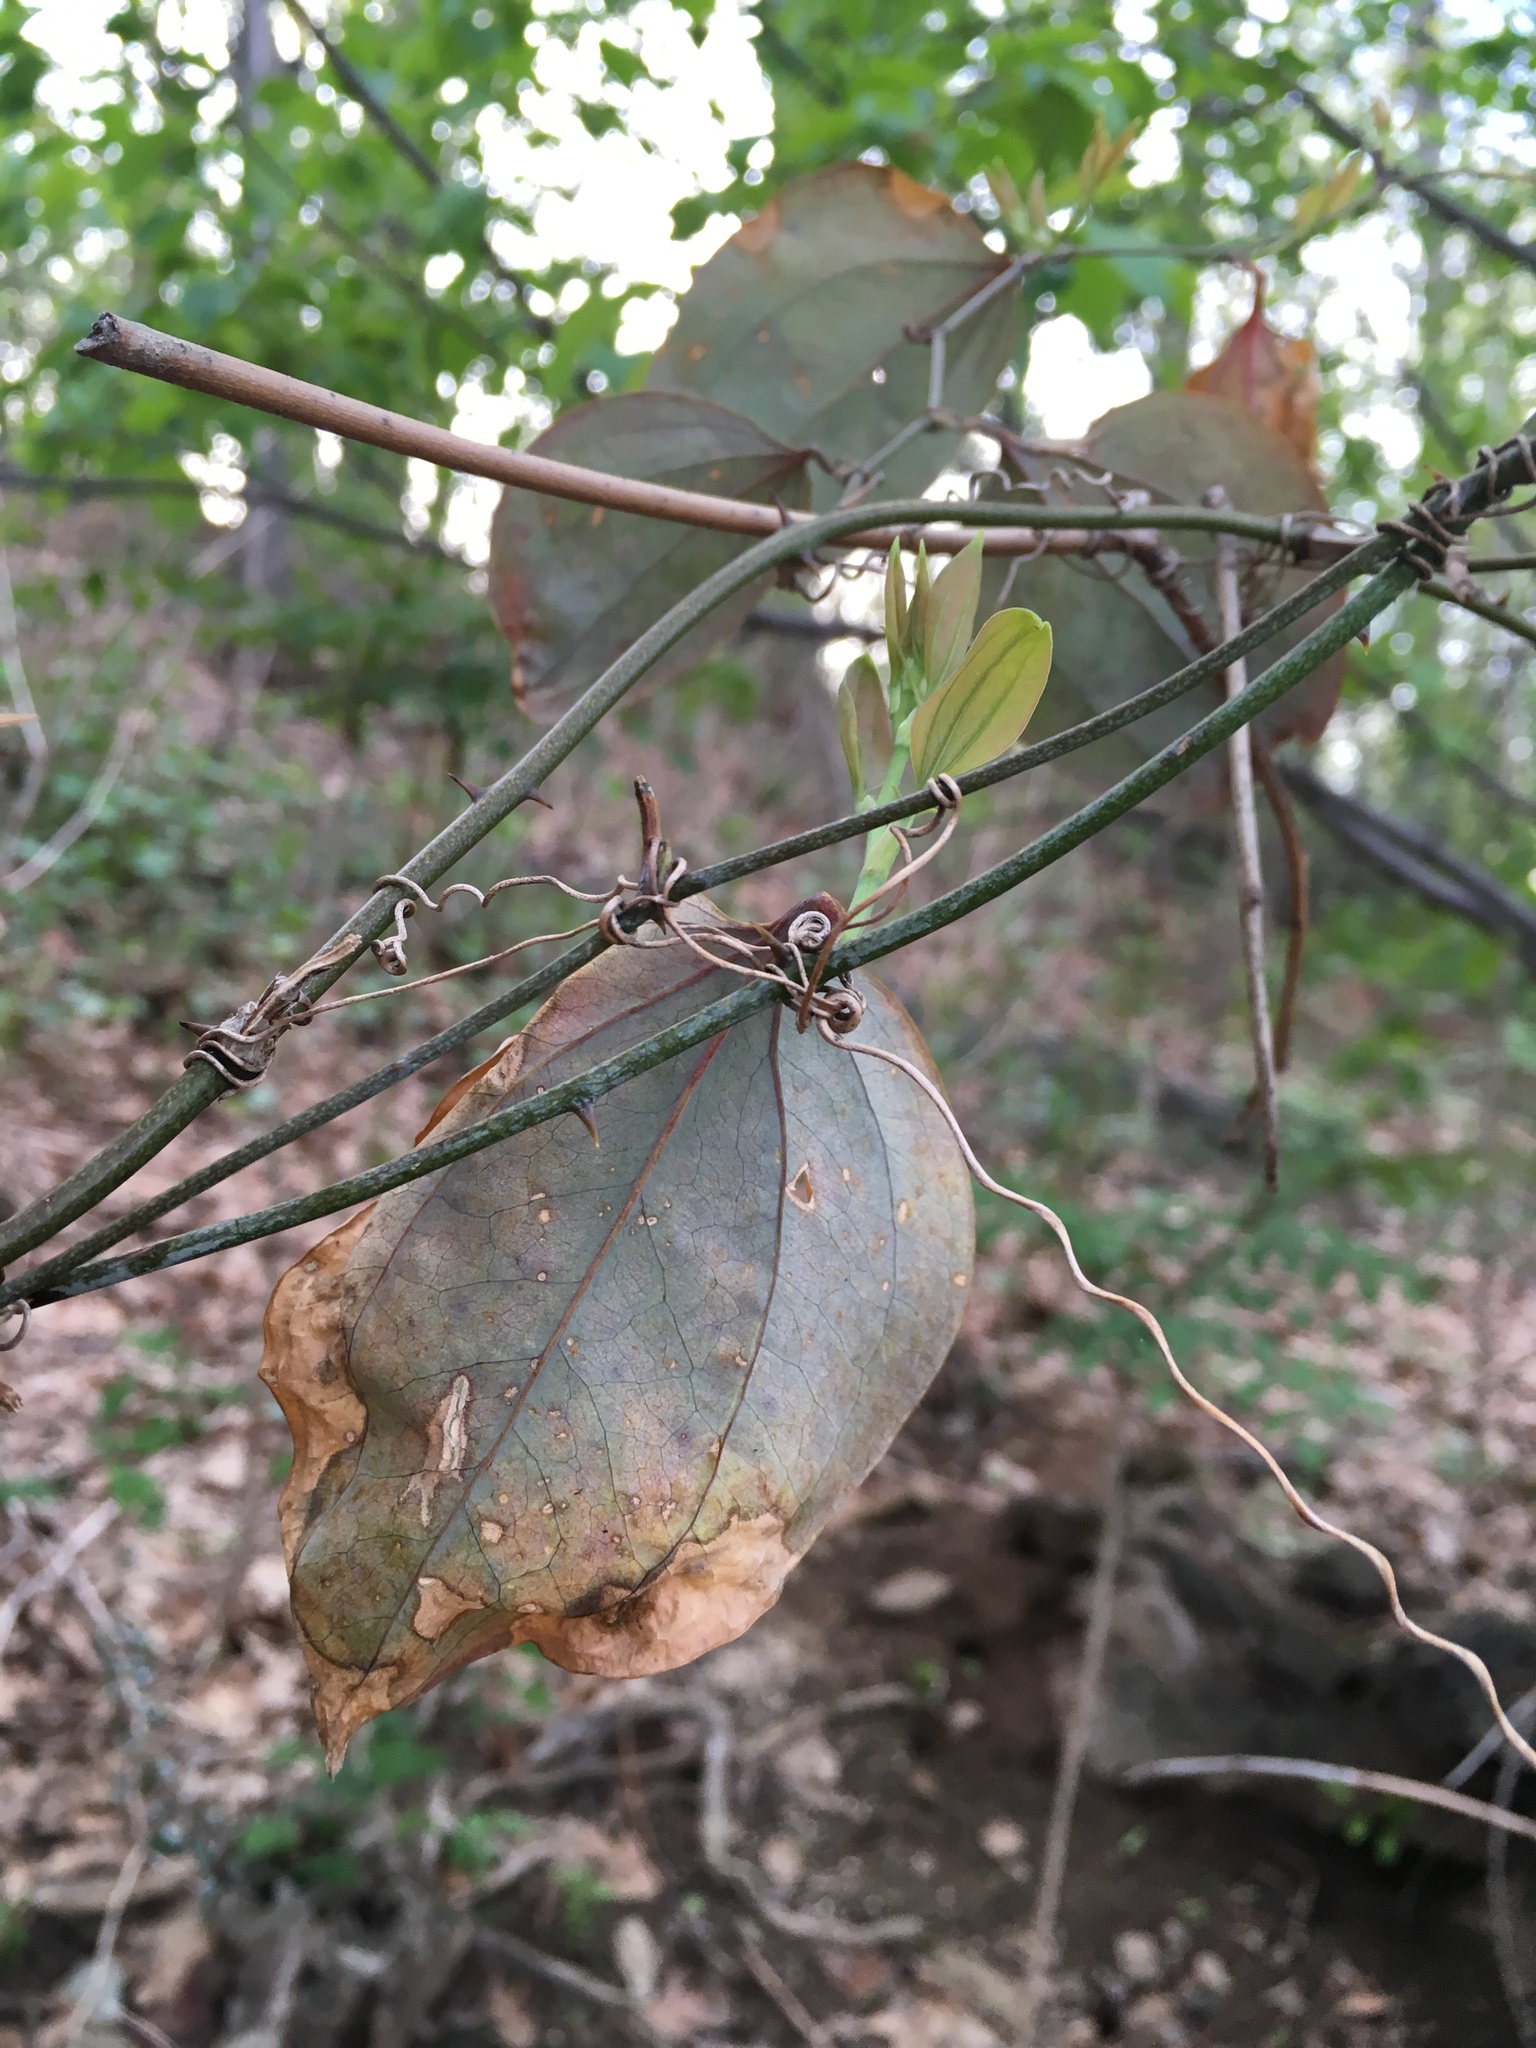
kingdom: Plantae
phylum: Tracheophyta
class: Liliopsida
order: Liliales
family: Smilacaceae
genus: Smilax
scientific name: Smilax glauca
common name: Cat greenbrier
